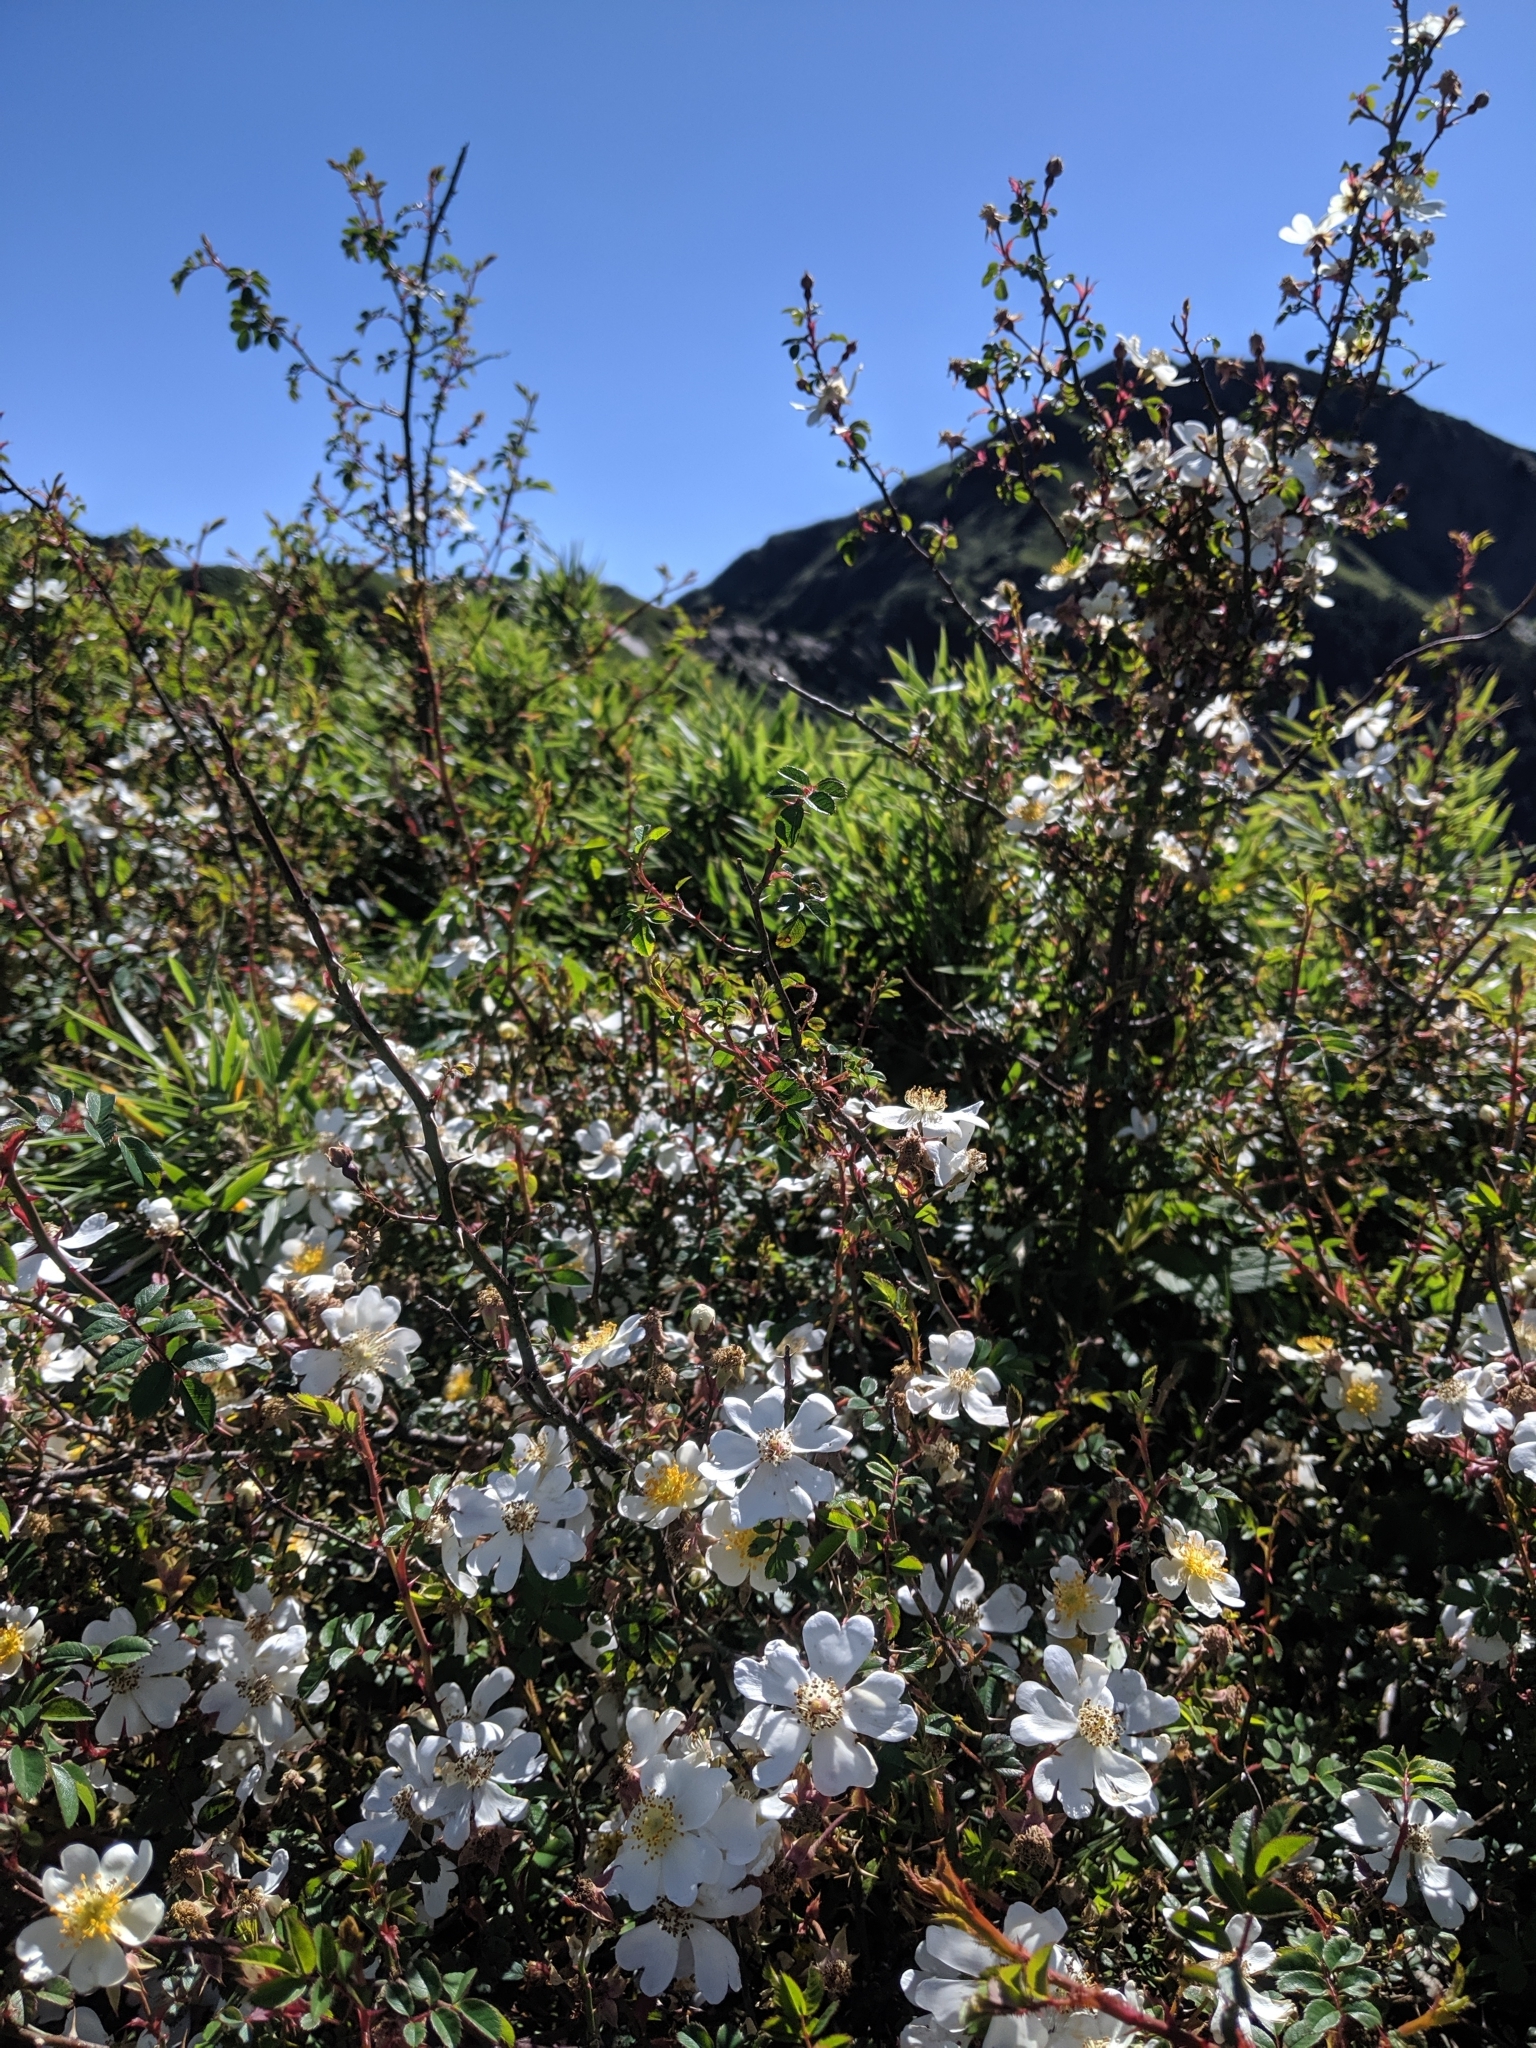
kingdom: Plantae
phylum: Tracheophyta
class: Magnoliopsida
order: Rosales
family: Rosaceae
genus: Rosa
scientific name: Rosa transmorrisonensis
